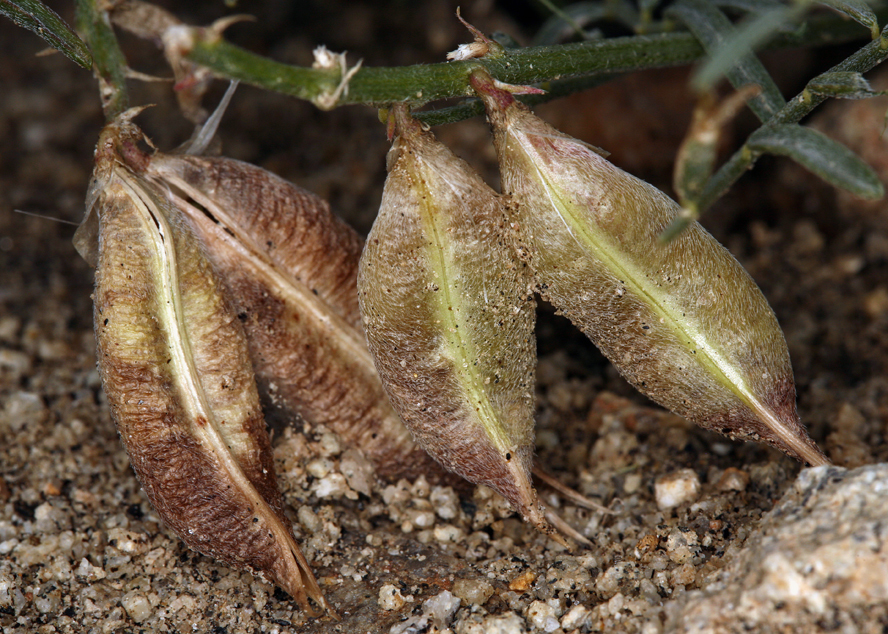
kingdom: Plantae
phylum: Tracheophyta
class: Magnoliopsida
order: Fabales
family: Fabaceae
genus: Astragalus
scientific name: Astragalus casei
